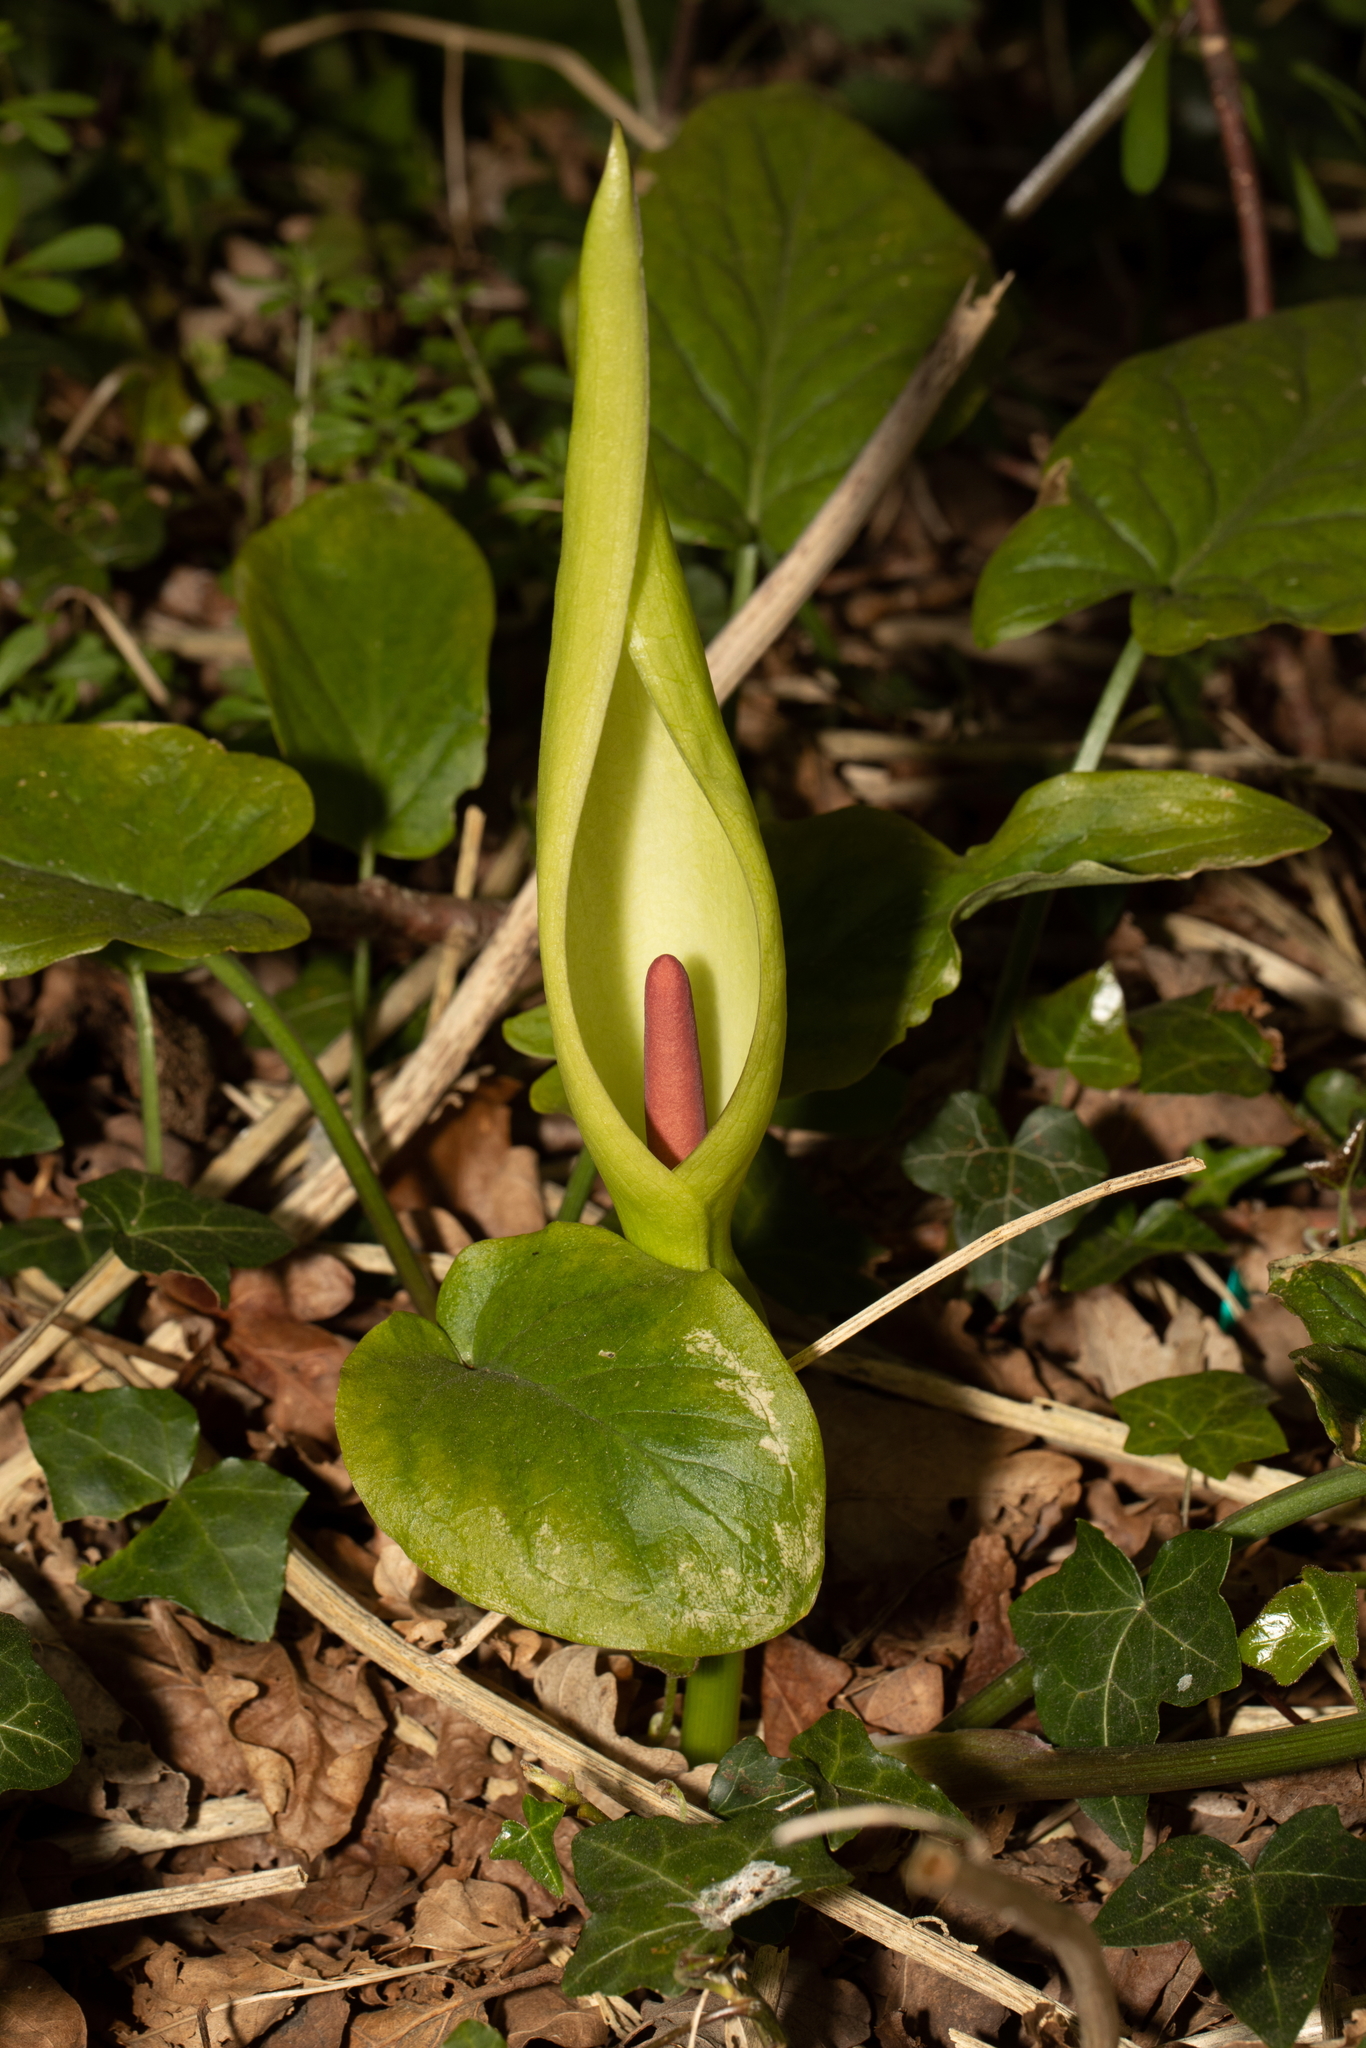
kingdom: Plantae
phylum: Tracheophyta
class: Liliopsida
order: Alismatales
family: Araceae
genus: Arum
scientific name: Arum maculatum
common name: Lords-and-ladies
